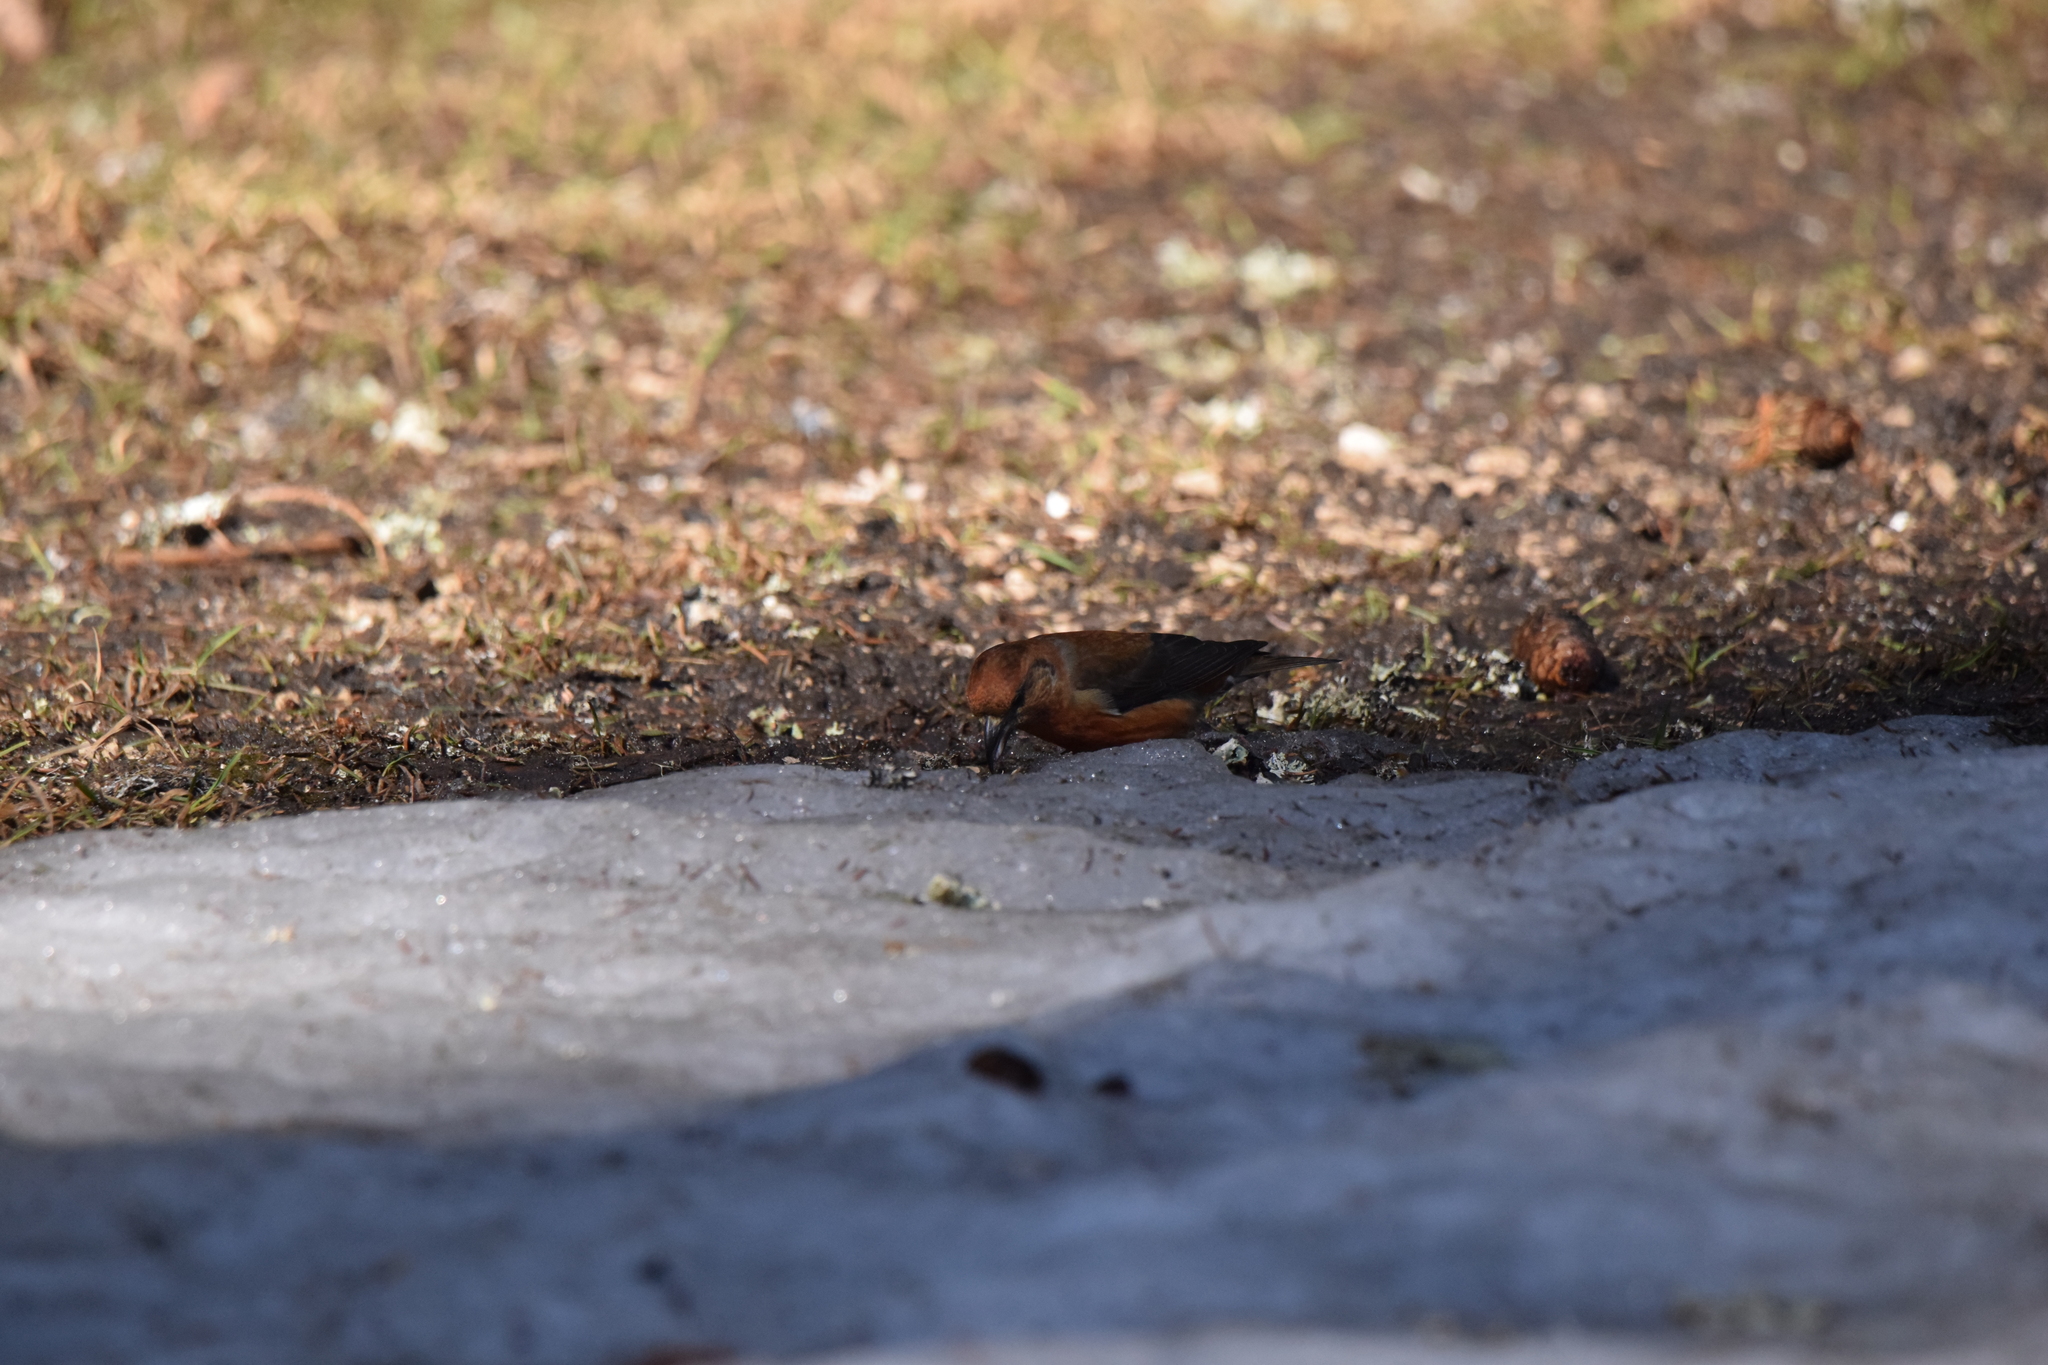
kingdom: Animalia
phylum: Chordata
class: Aves
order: Passeriformes
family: Fringillidae
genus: Loxia
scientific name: Loxia curvirostra
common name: Red crossbill
